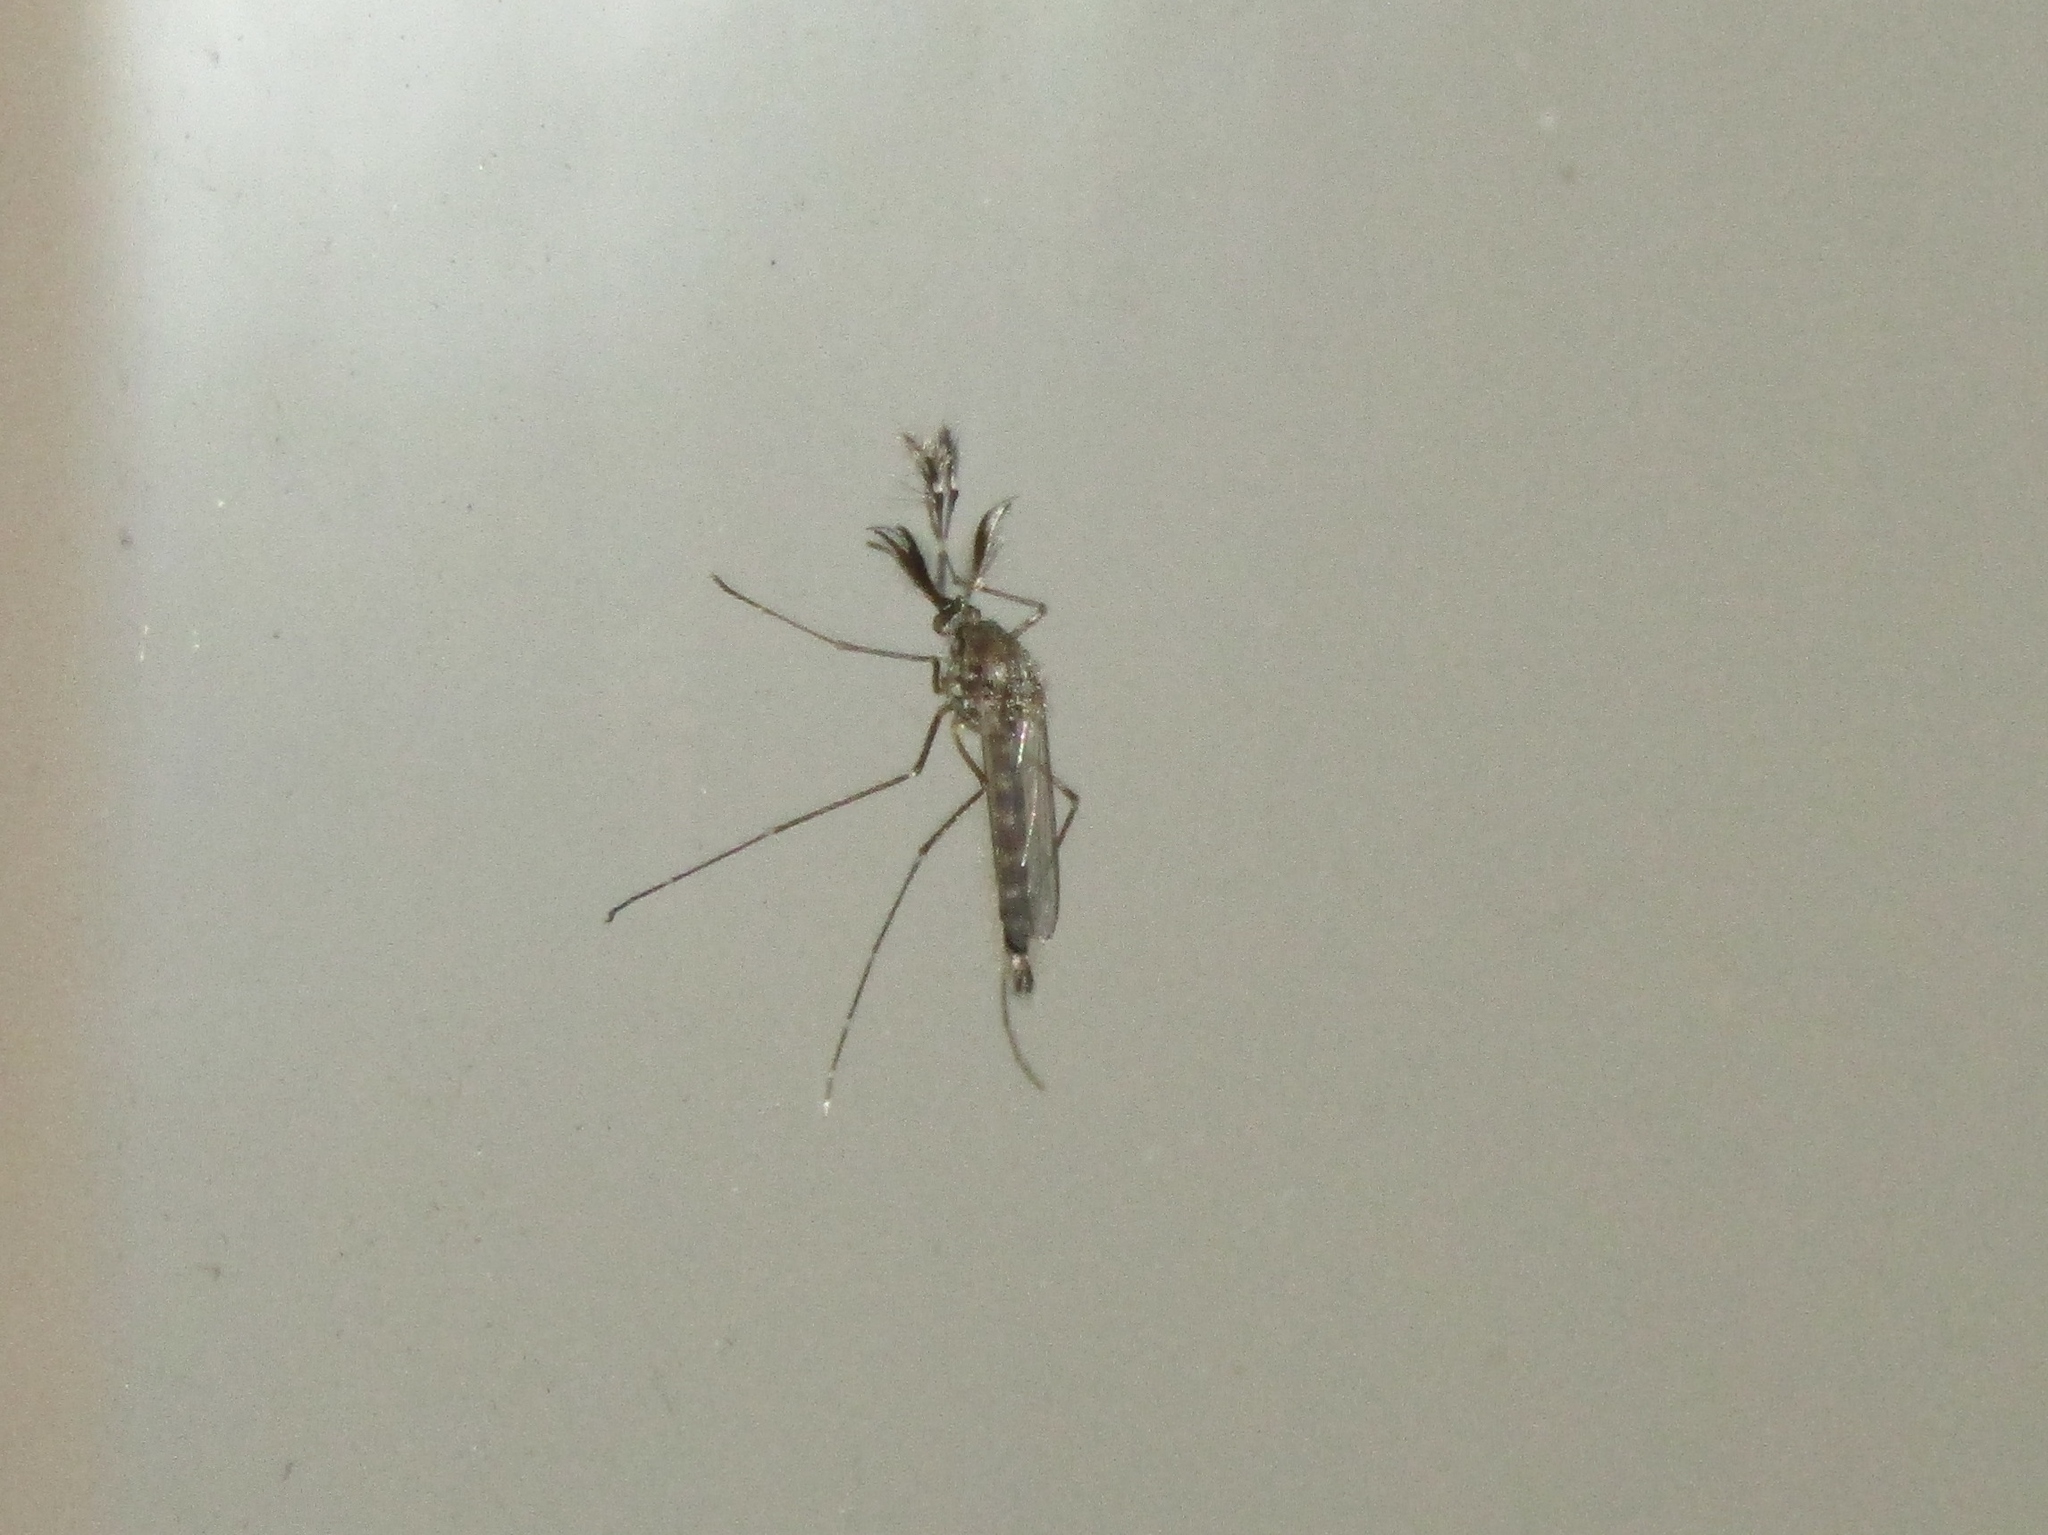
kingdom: Animalia
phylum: Arthropoda
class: Insecta
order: Diptera
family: Culicidae
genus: Aedes
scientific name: Aedes vexans
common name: Inland floodwater mosquito
